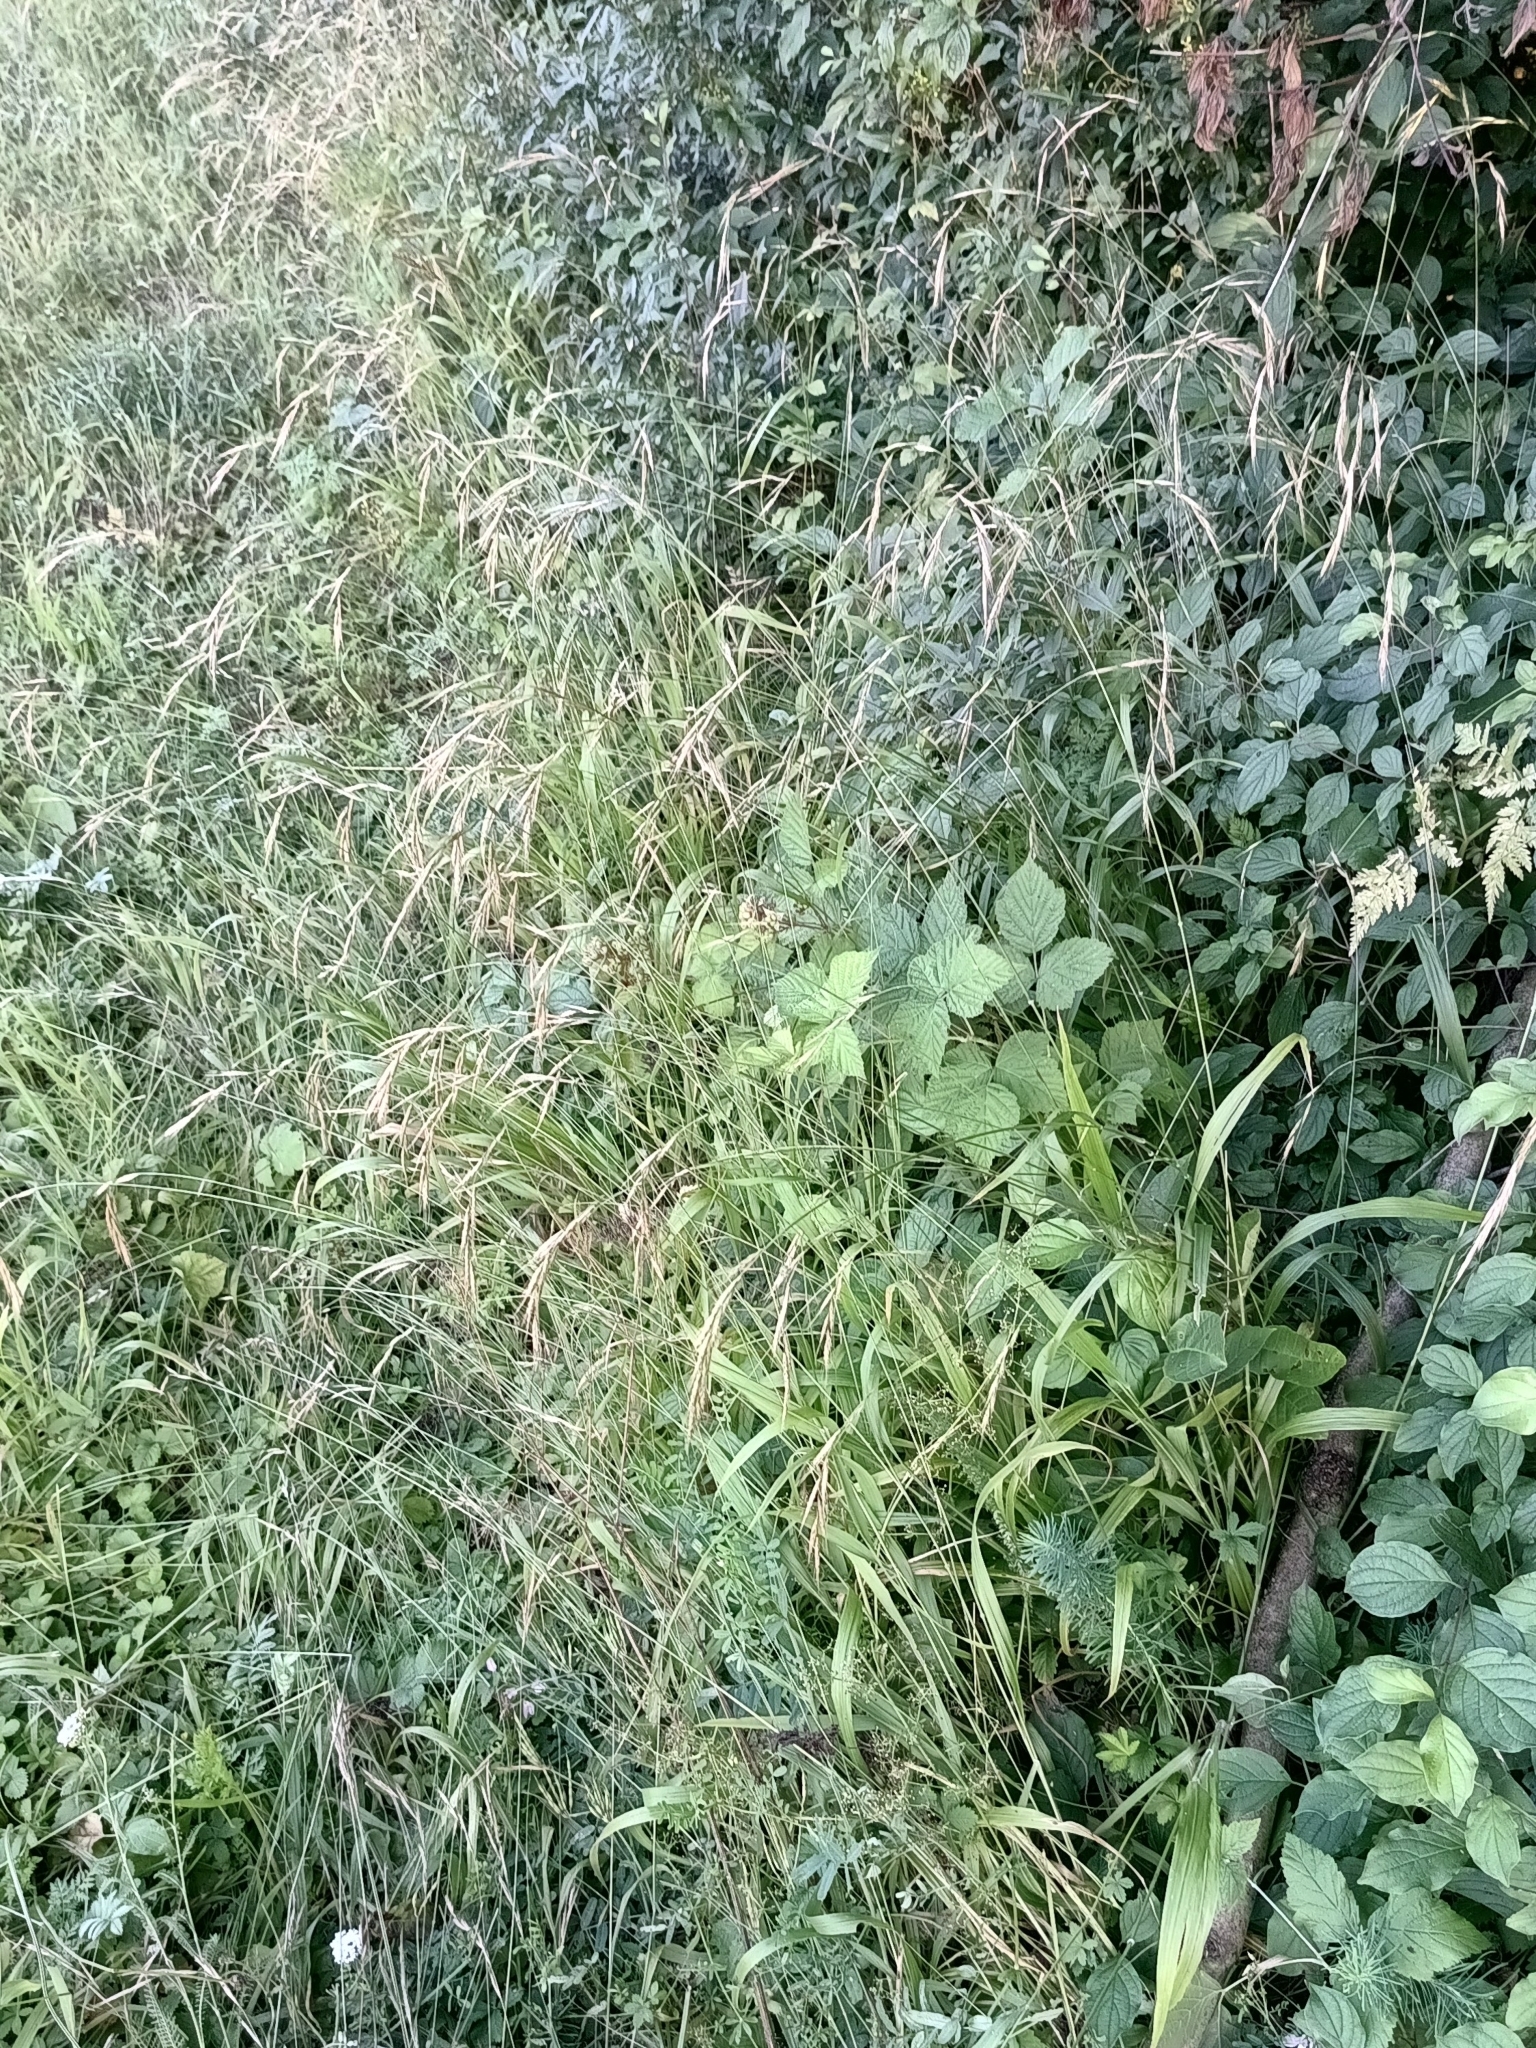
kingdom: Plantae
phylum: Tracheophyta
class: Liliopsida
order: Poales
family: Poaceae
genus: Brachypodium
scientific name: Brachypodium sylvaticum
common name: False-brome
